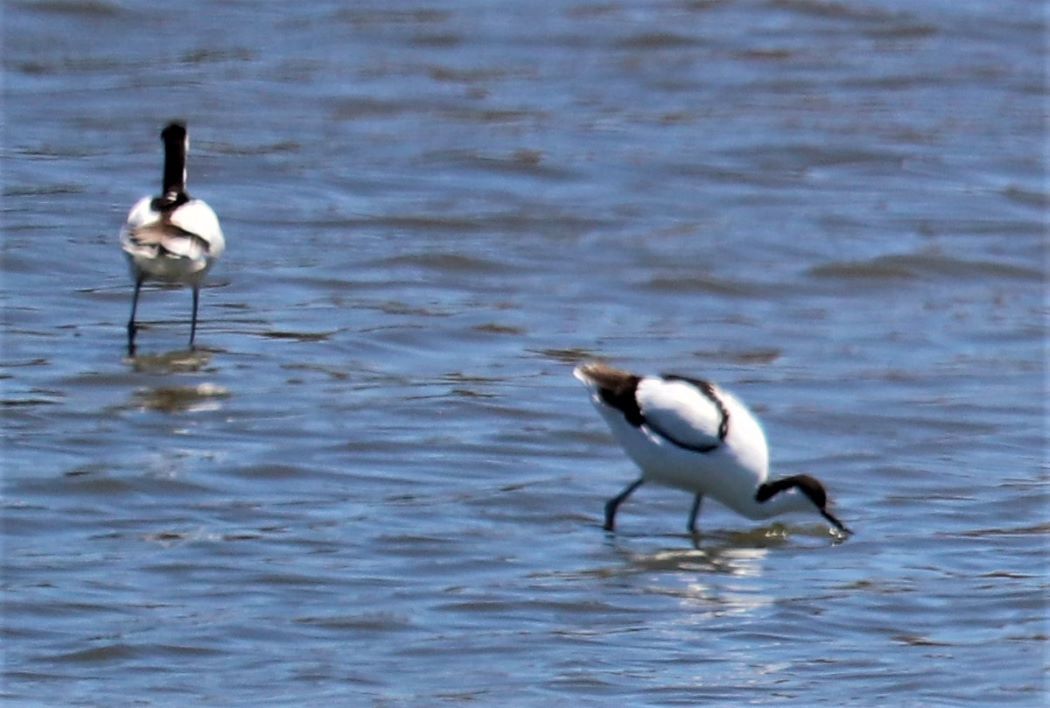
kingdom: Animalia
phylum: Chordata
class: Aves
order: Charadriiformes
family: Recurvirostridae
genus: Recurvirostra
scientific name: Recurvirostra avosetta
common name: Pied avocet
